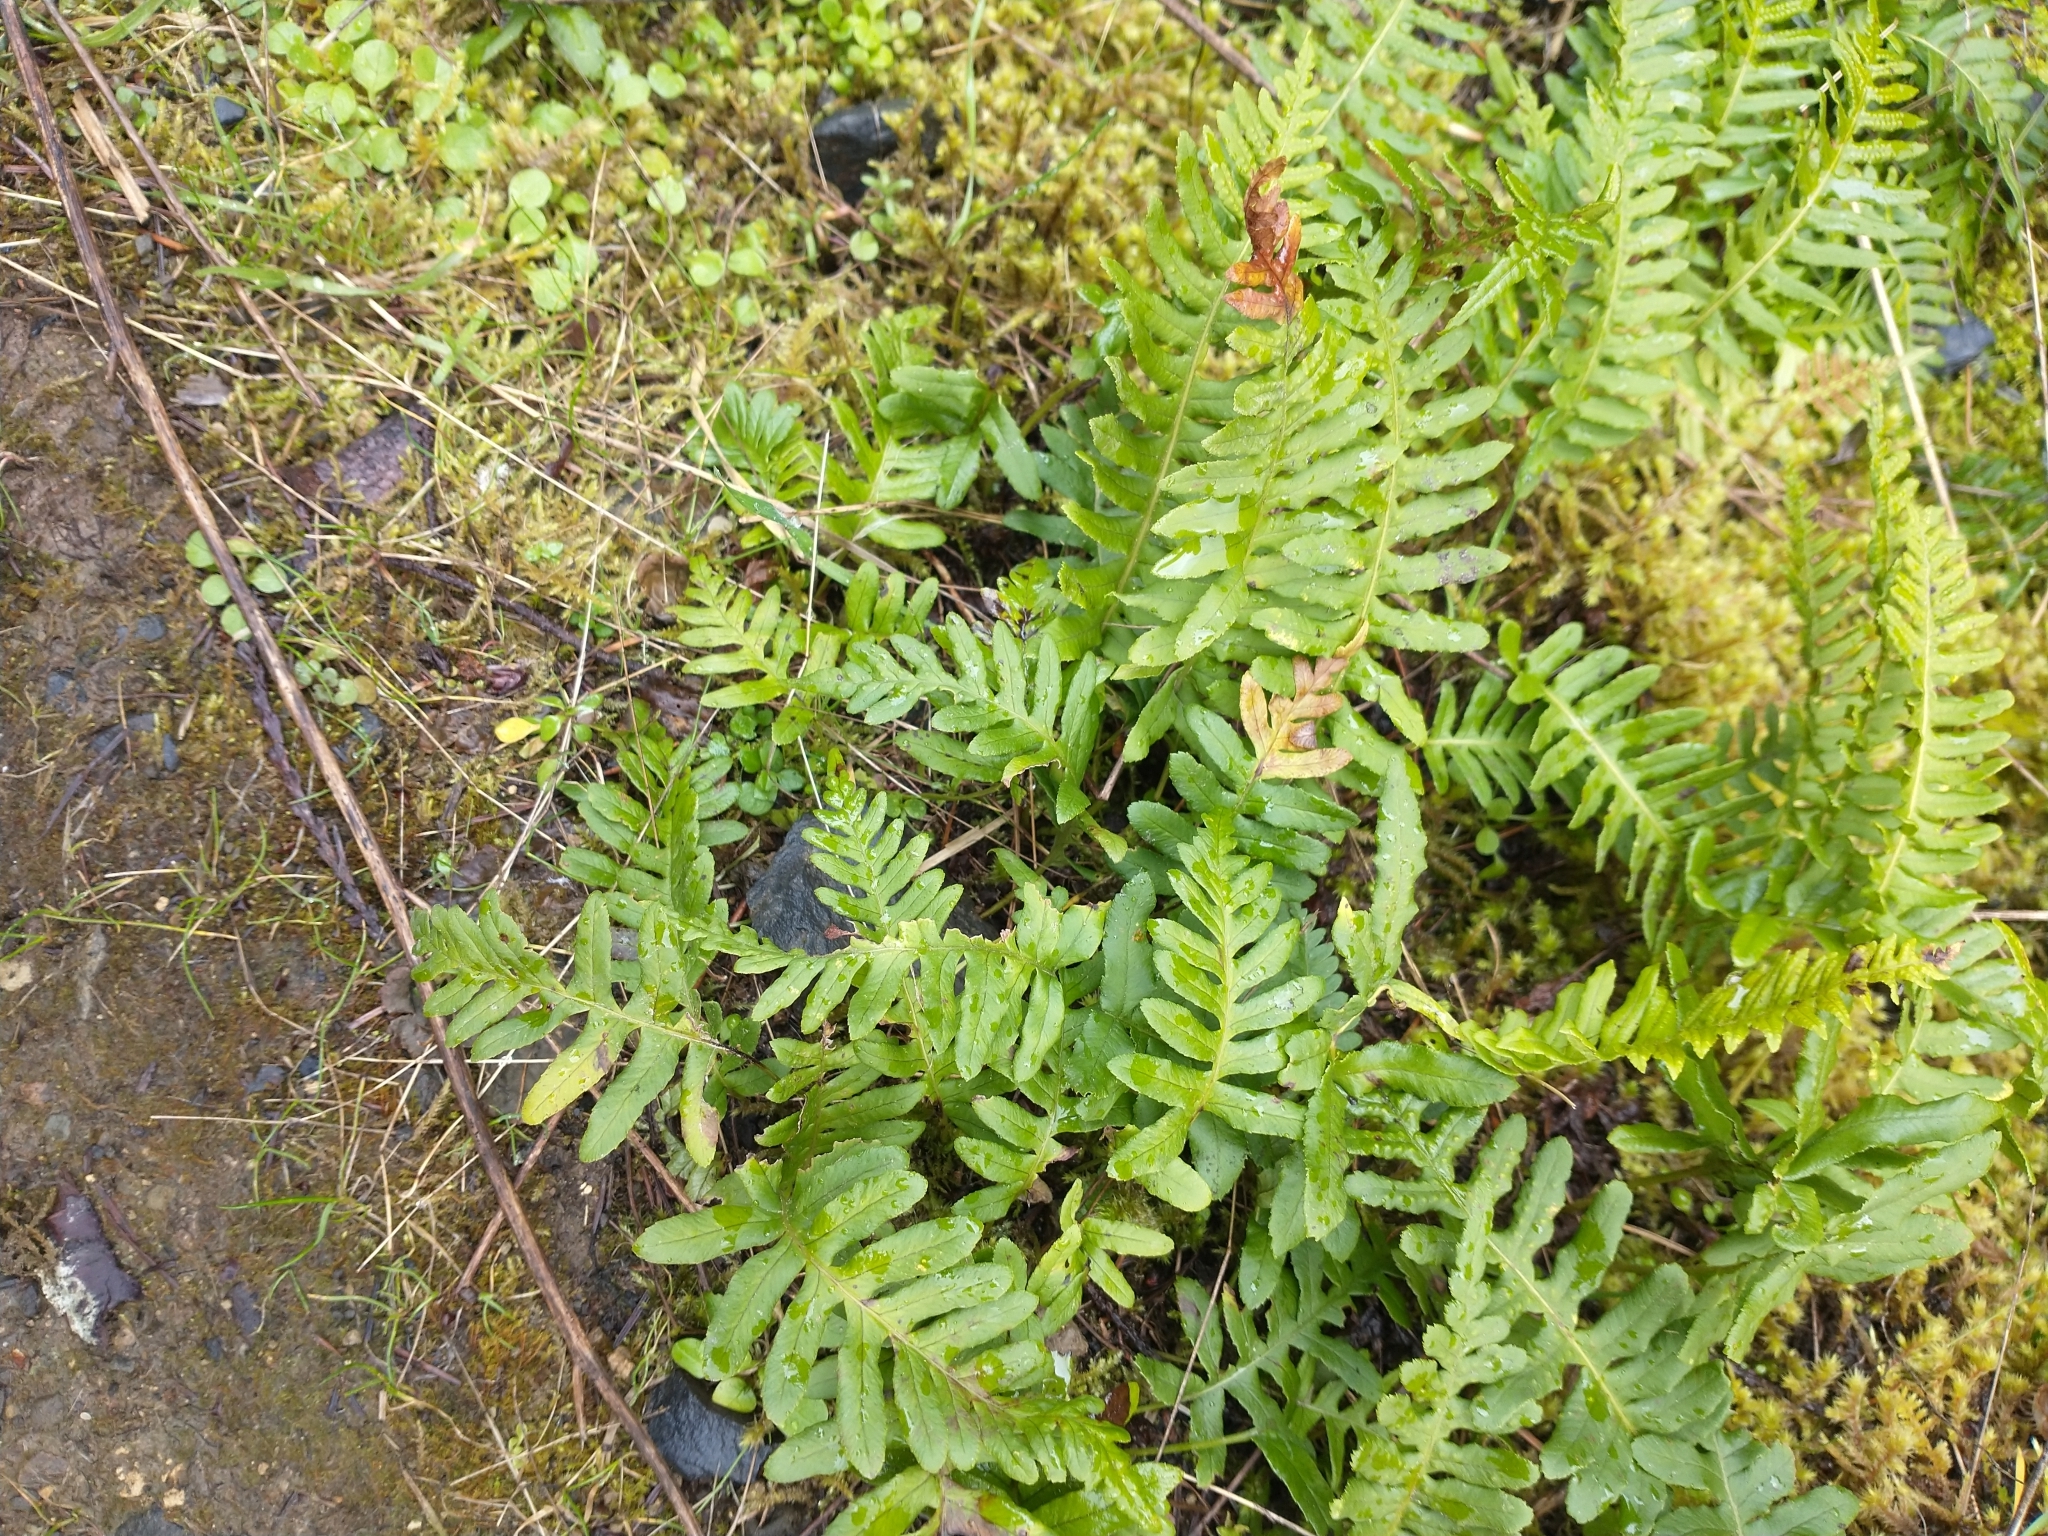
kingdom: Plantae
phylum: Tracheophyta
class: Polypodiopsida
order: Polypodiales
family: Polypodiaceae
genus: Polypodium
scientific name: Polypodium glycyrrhiza
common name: Licorice fern
